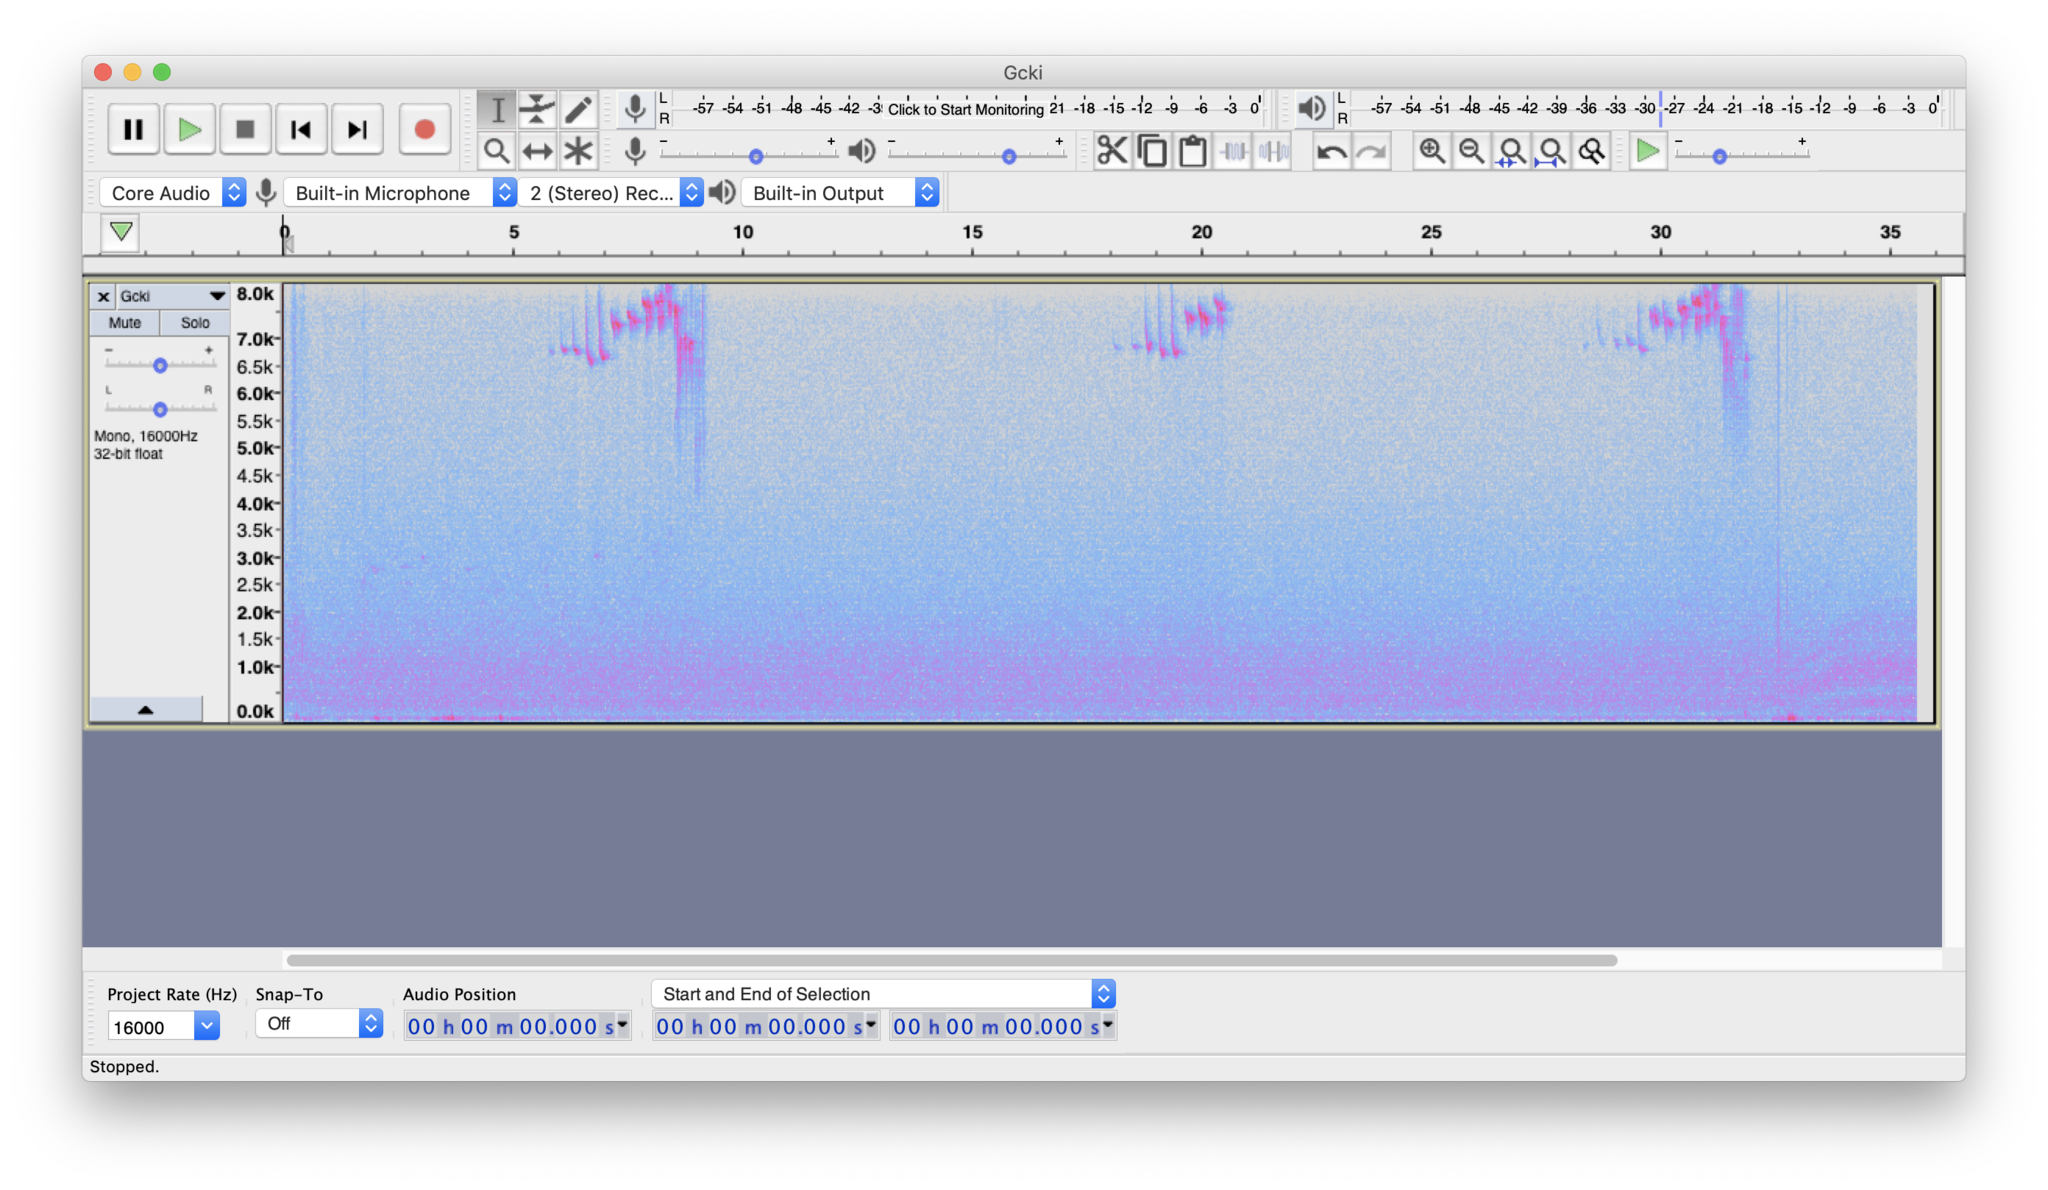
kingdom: Animalia
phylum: Chordata
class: Aves
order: Passeriformes
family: Regulidae
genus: Regulus
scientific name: Regulus satrapa
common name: Golden-crowned kinglet
